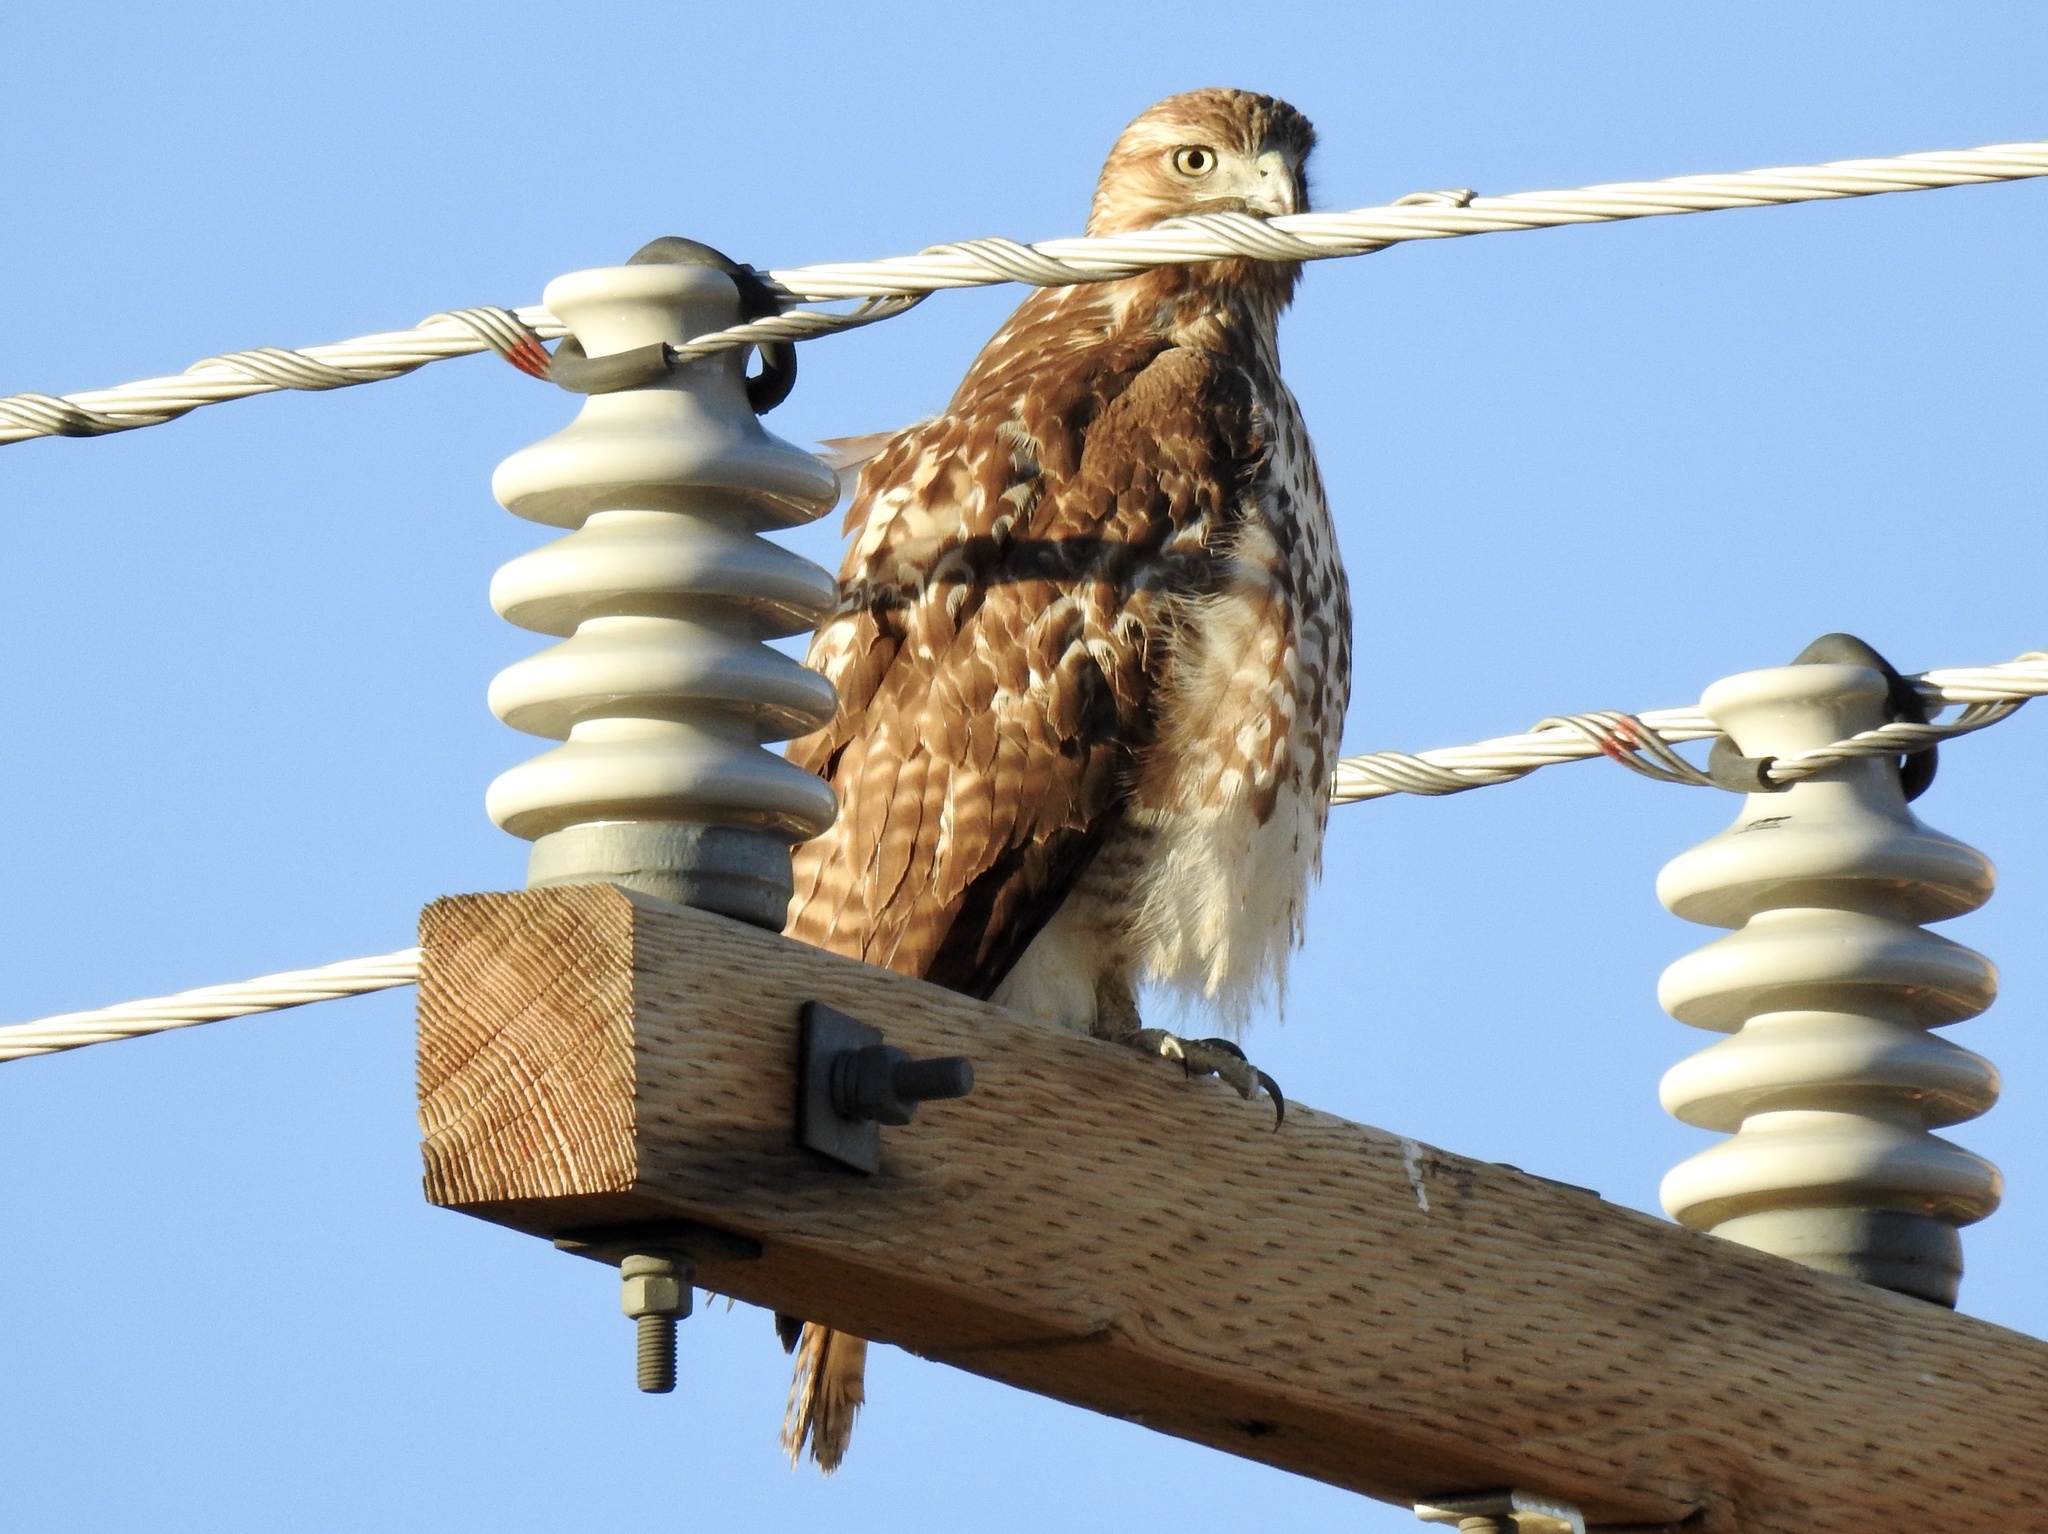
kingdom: Animalia
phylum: Chordata
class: Aves
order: Accipitriformes
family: Accipitridae
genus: Buteo
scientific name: Buteo jamaicensis
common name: Red-tailed hawk
